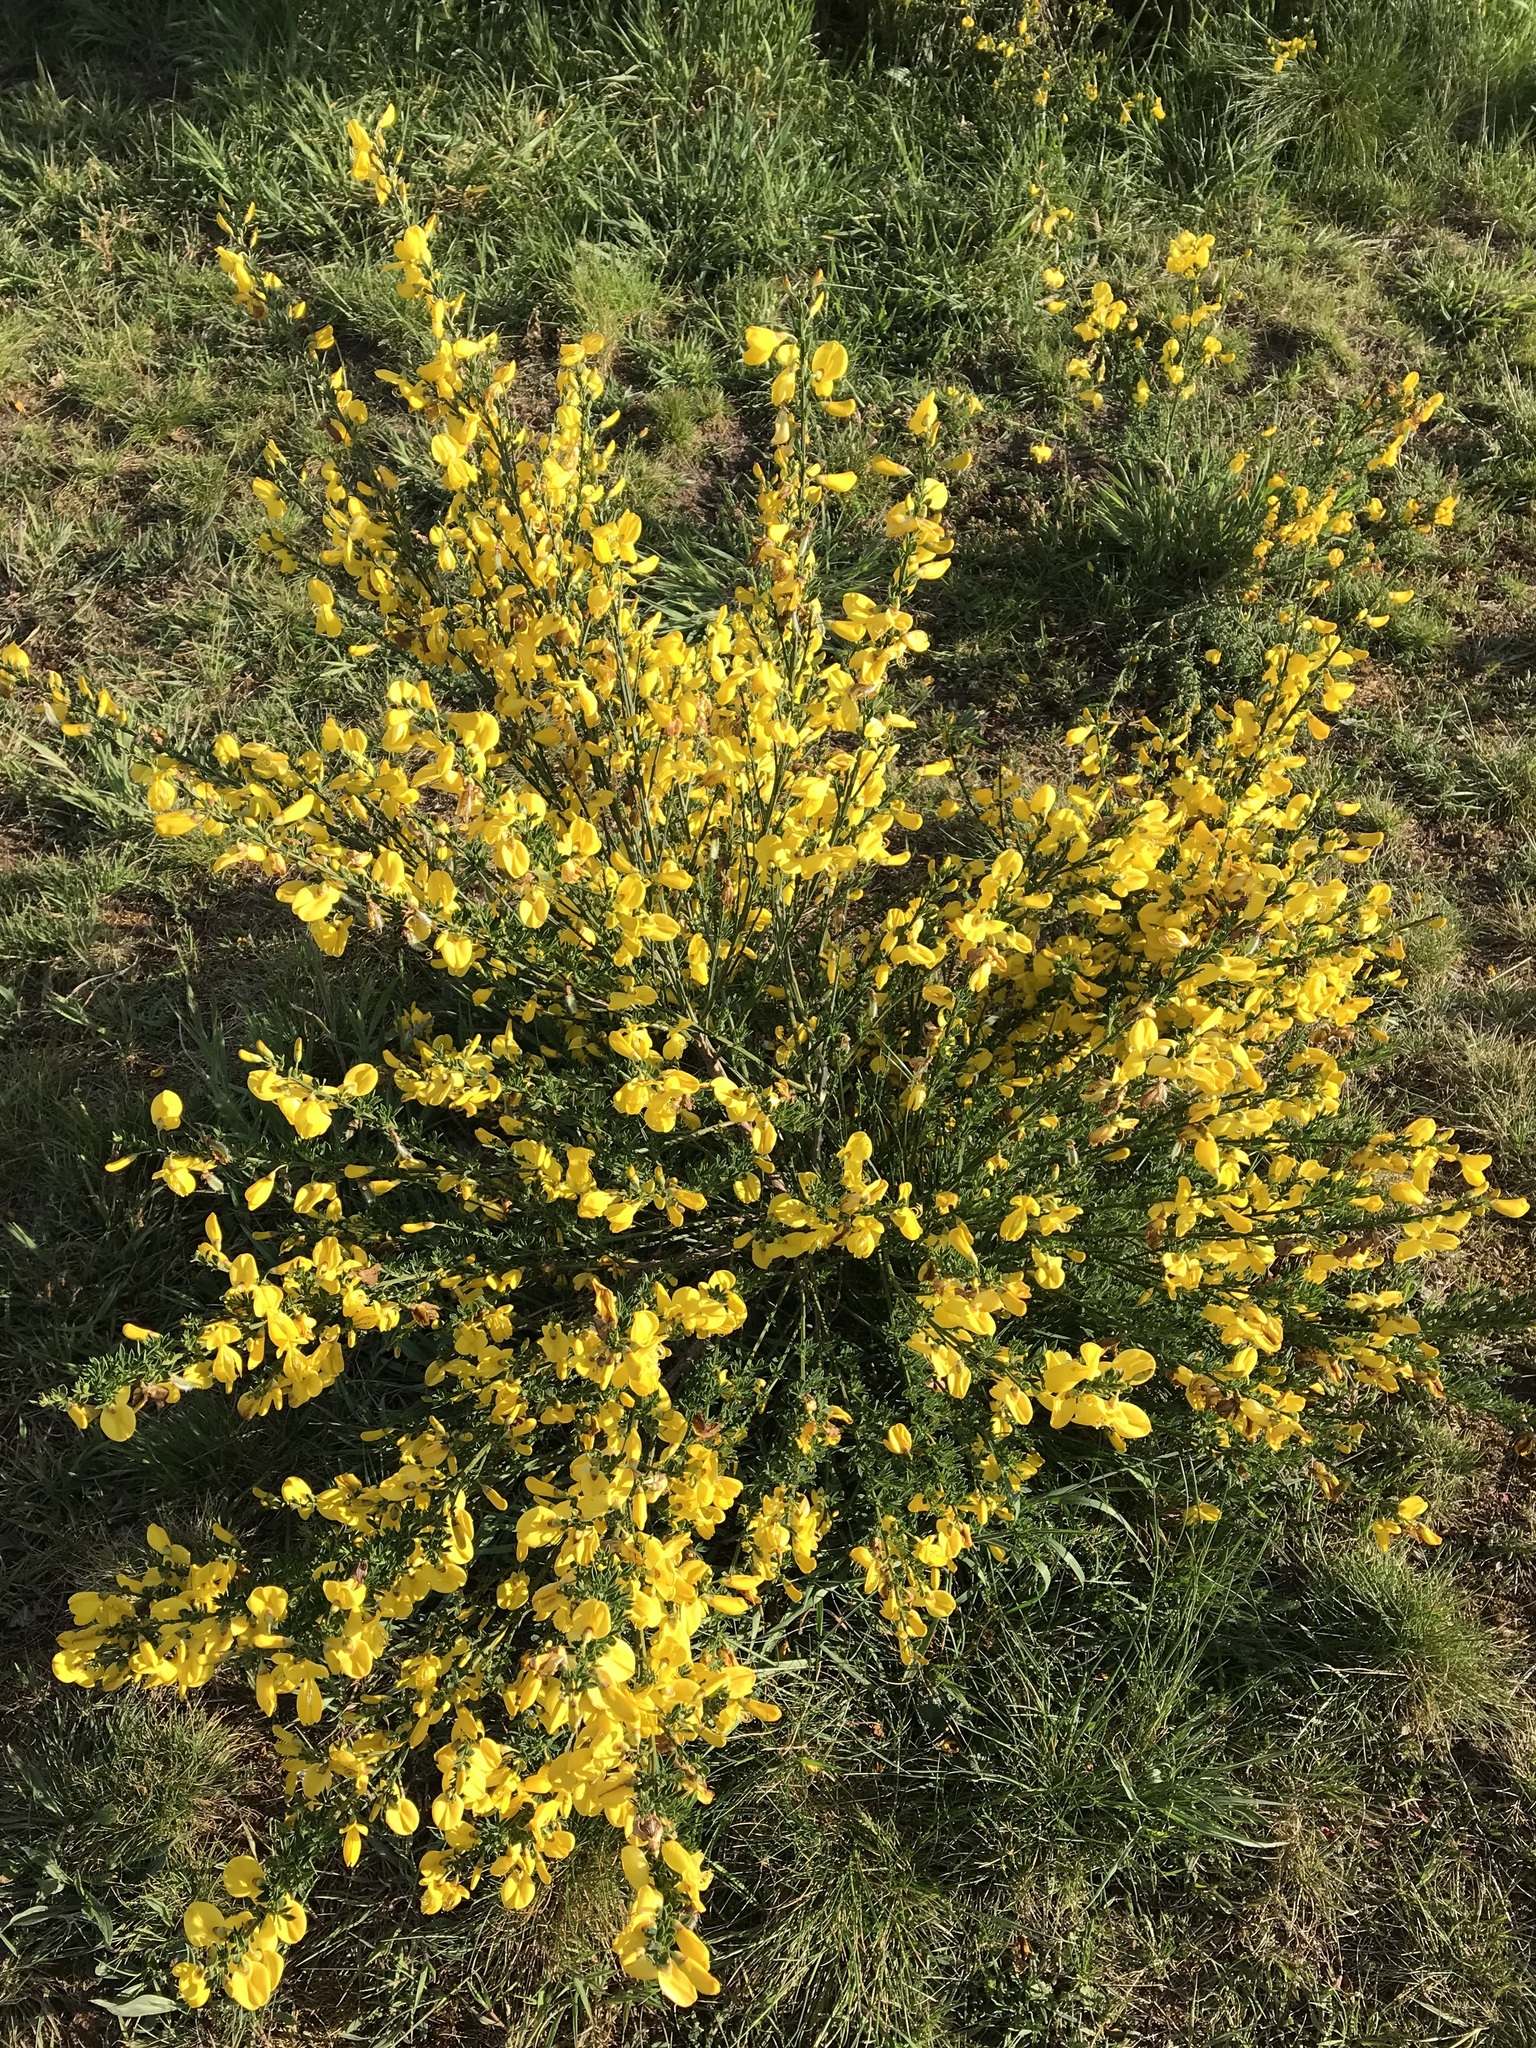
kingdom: Plantae
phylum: Tracheophyta
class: Magnoliopsida
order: Fabales
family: Fabaceae
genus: Cytisus
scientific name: Cytisus scoparius
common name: Scotch broom
